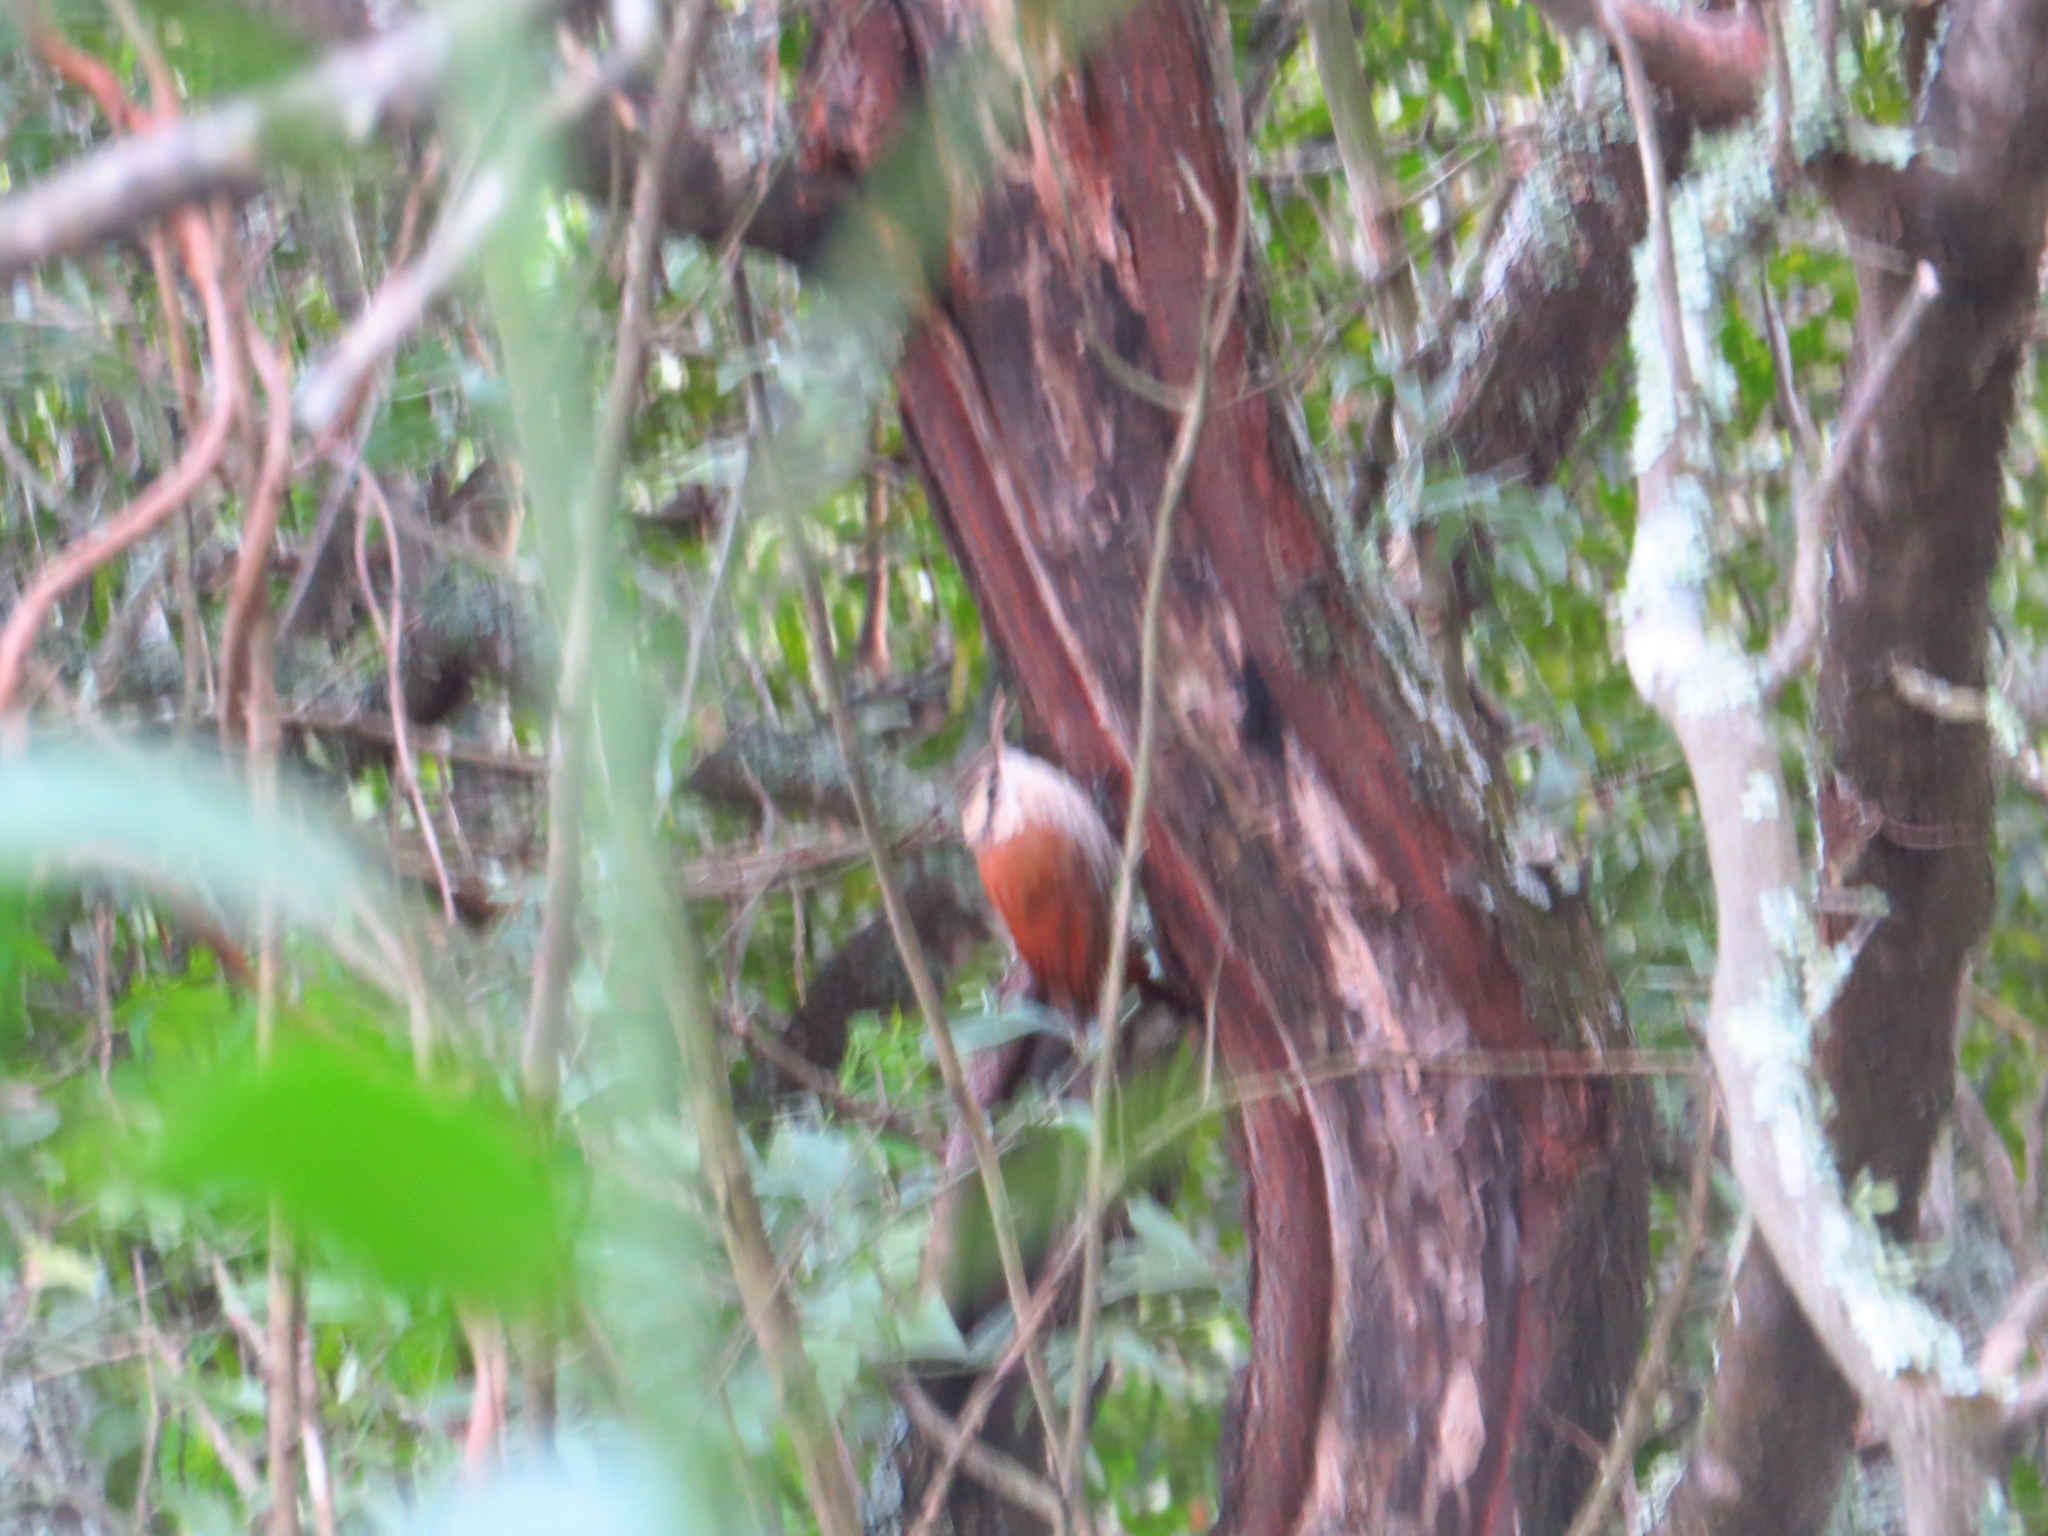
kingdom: Animalia
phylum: Chordata
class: Aves
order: Passeriformes
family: Furnariidae
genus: Lepidocolaptes
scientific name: Lepidocolaptes angustirostris
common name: Narrow-billed woodcreeper
